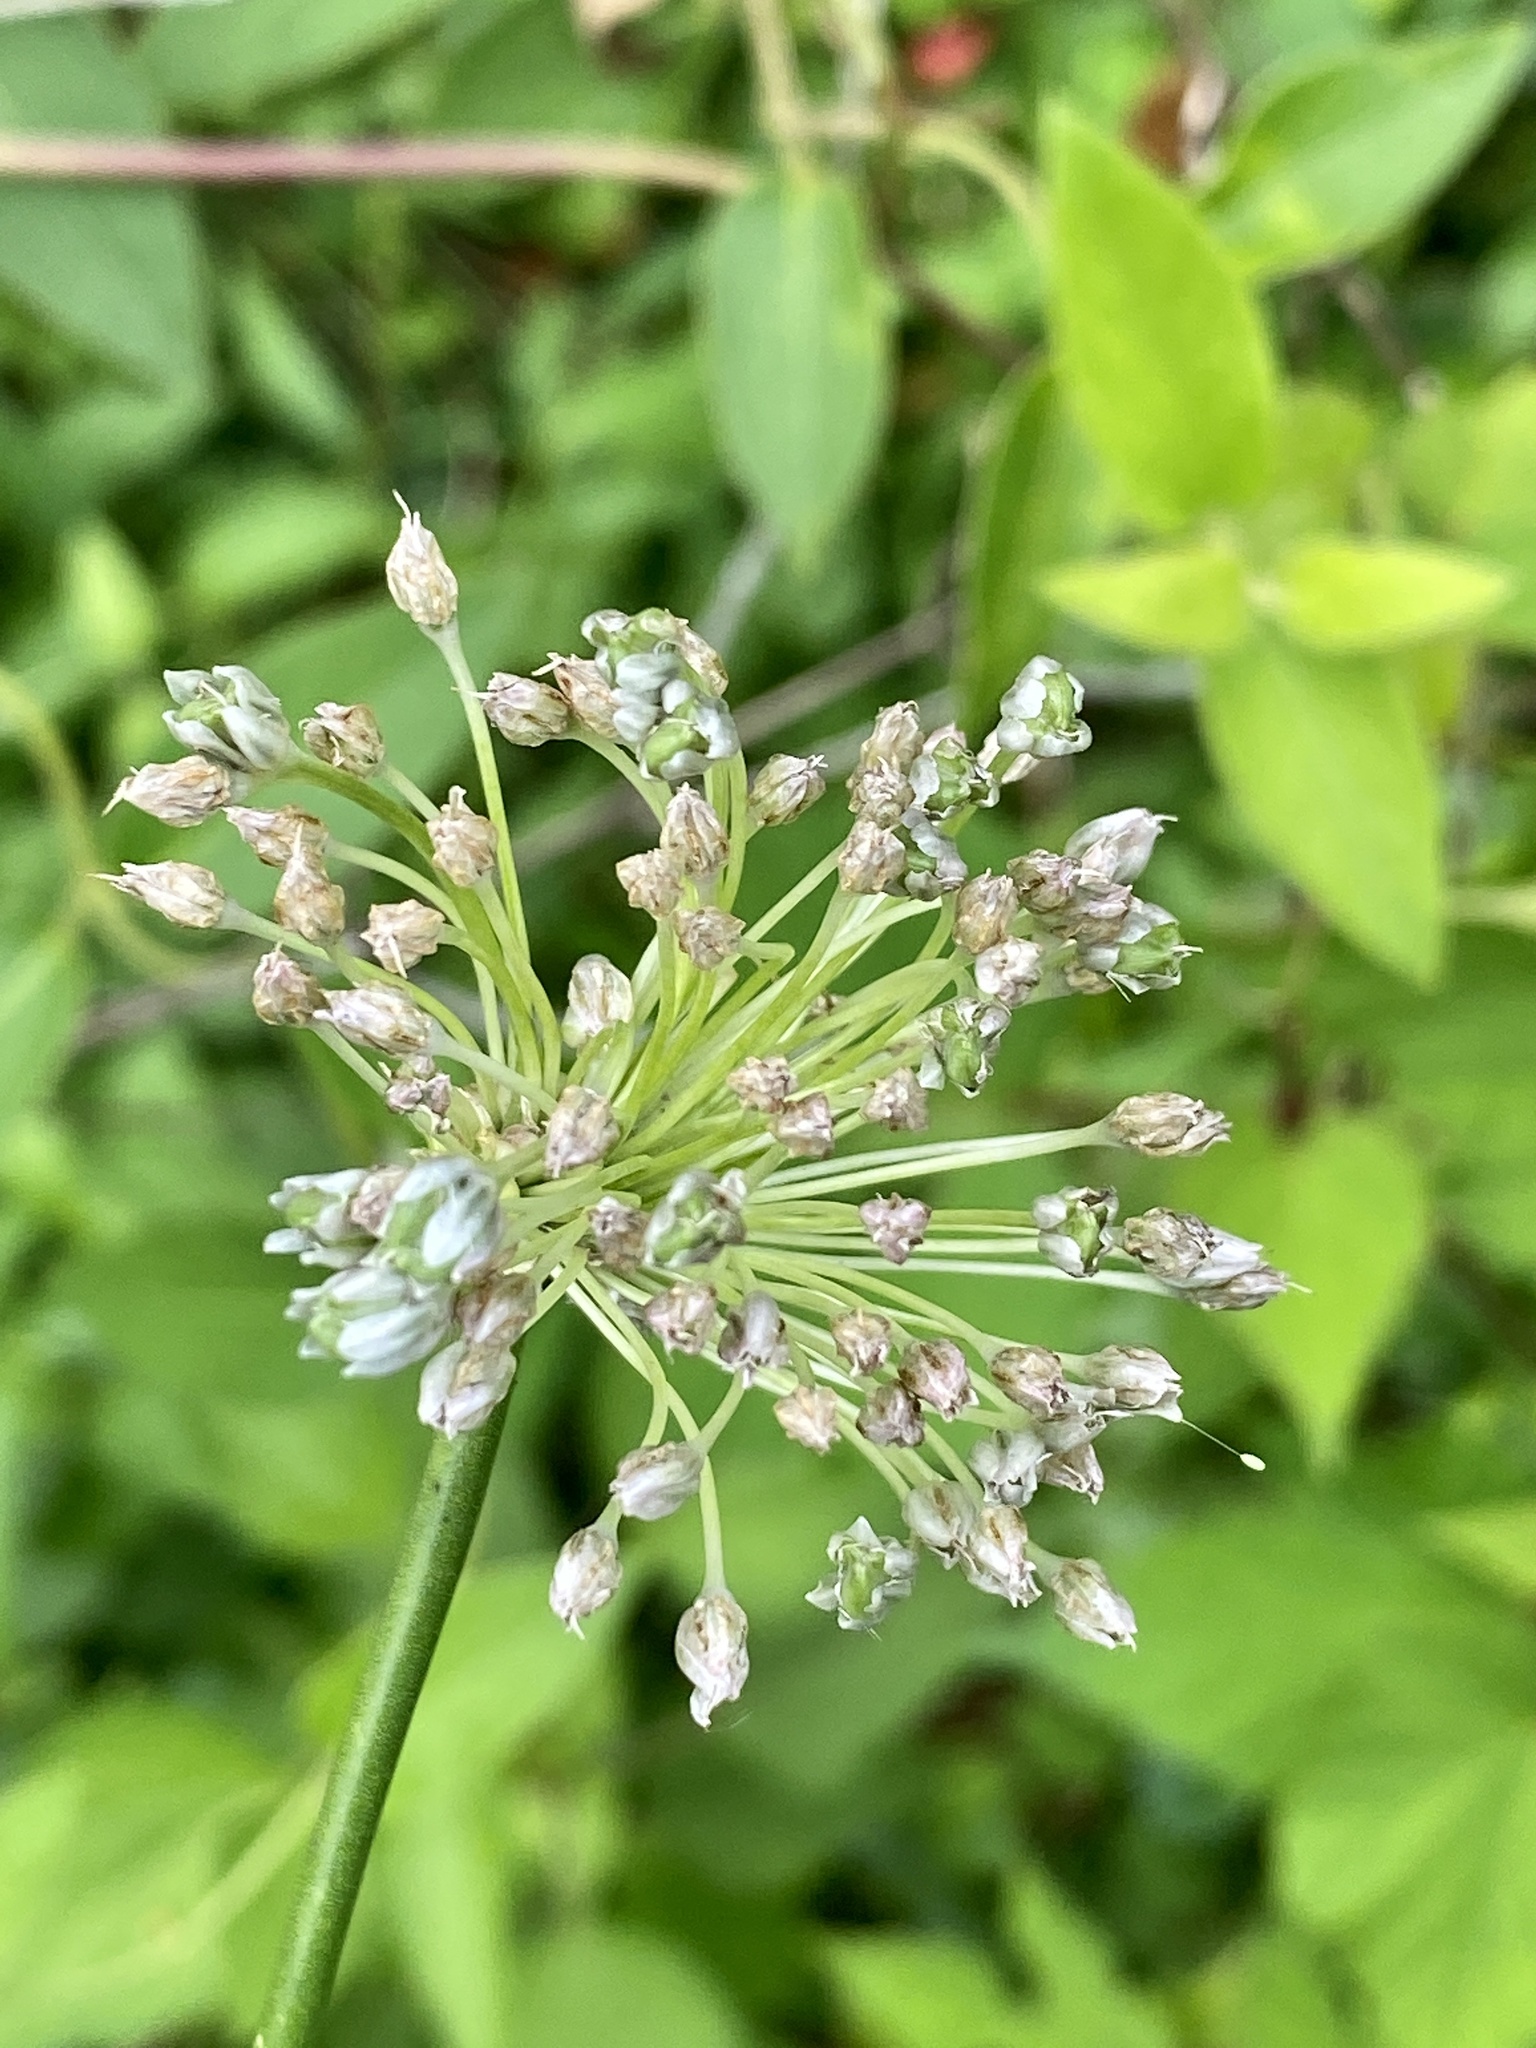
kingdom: Plantae
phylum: Tracheophyta
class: Liliopsida
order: Asparagales
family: Amaryllidaceae
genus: Allium
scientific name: Allium vineale
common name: Crow garlic
